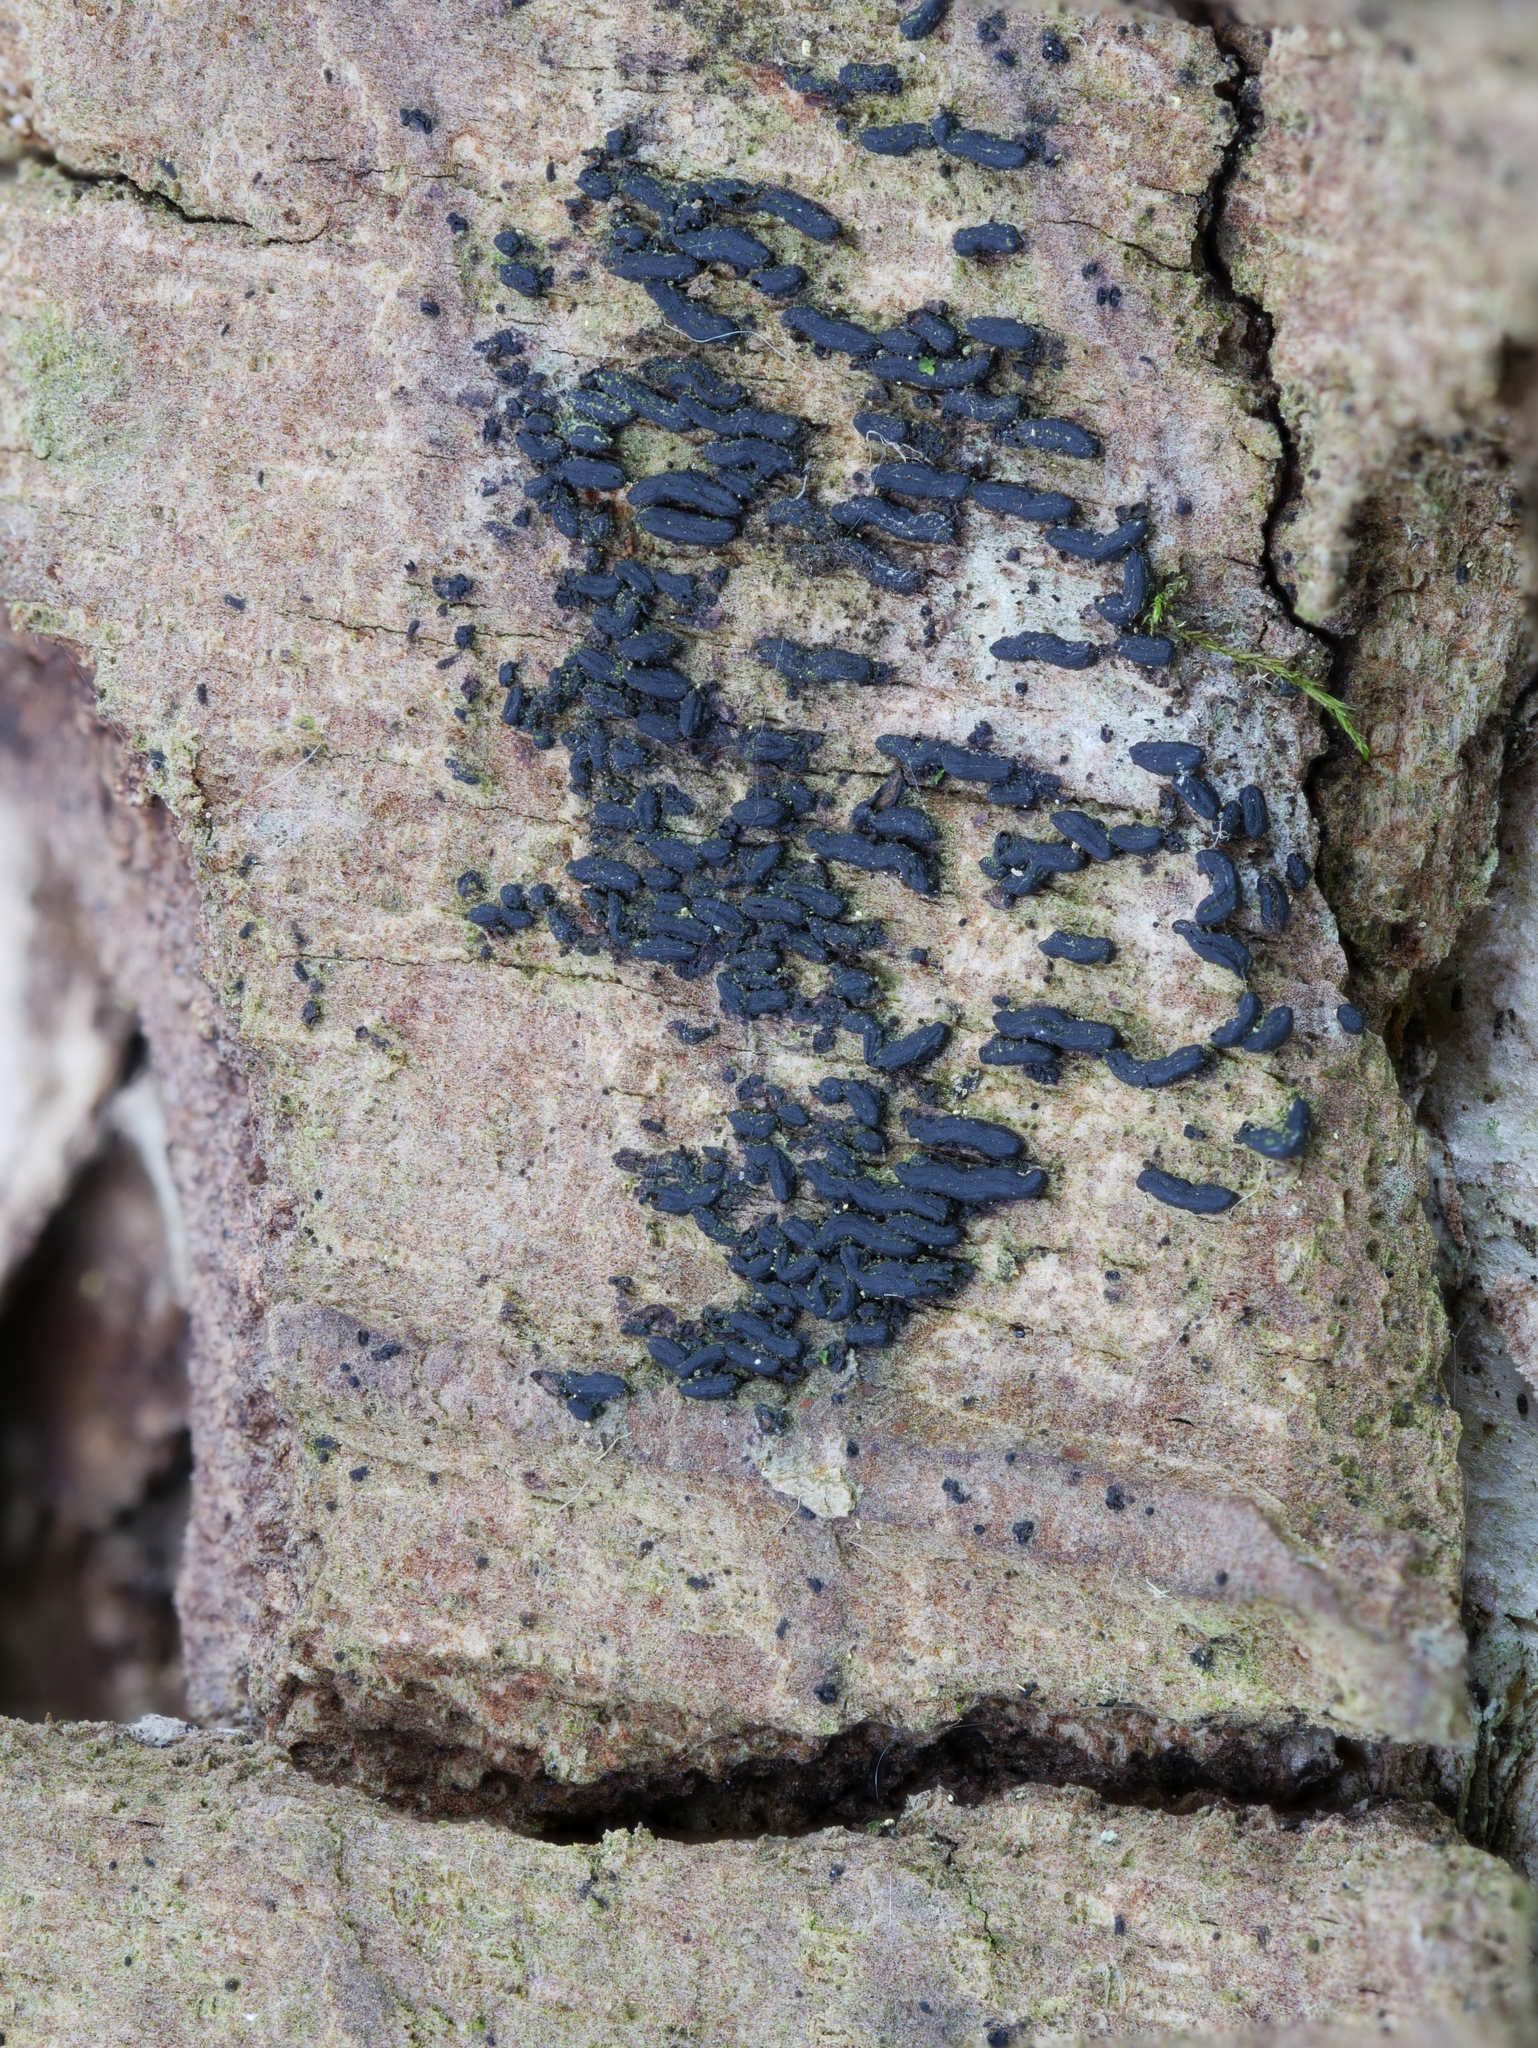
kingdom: Fungi
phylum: Ascomycota
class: Dothideomycetes
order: Hysteriales
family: Hysteriaceae
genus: Hysterobrevium
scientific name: Hysterobrevium mori
